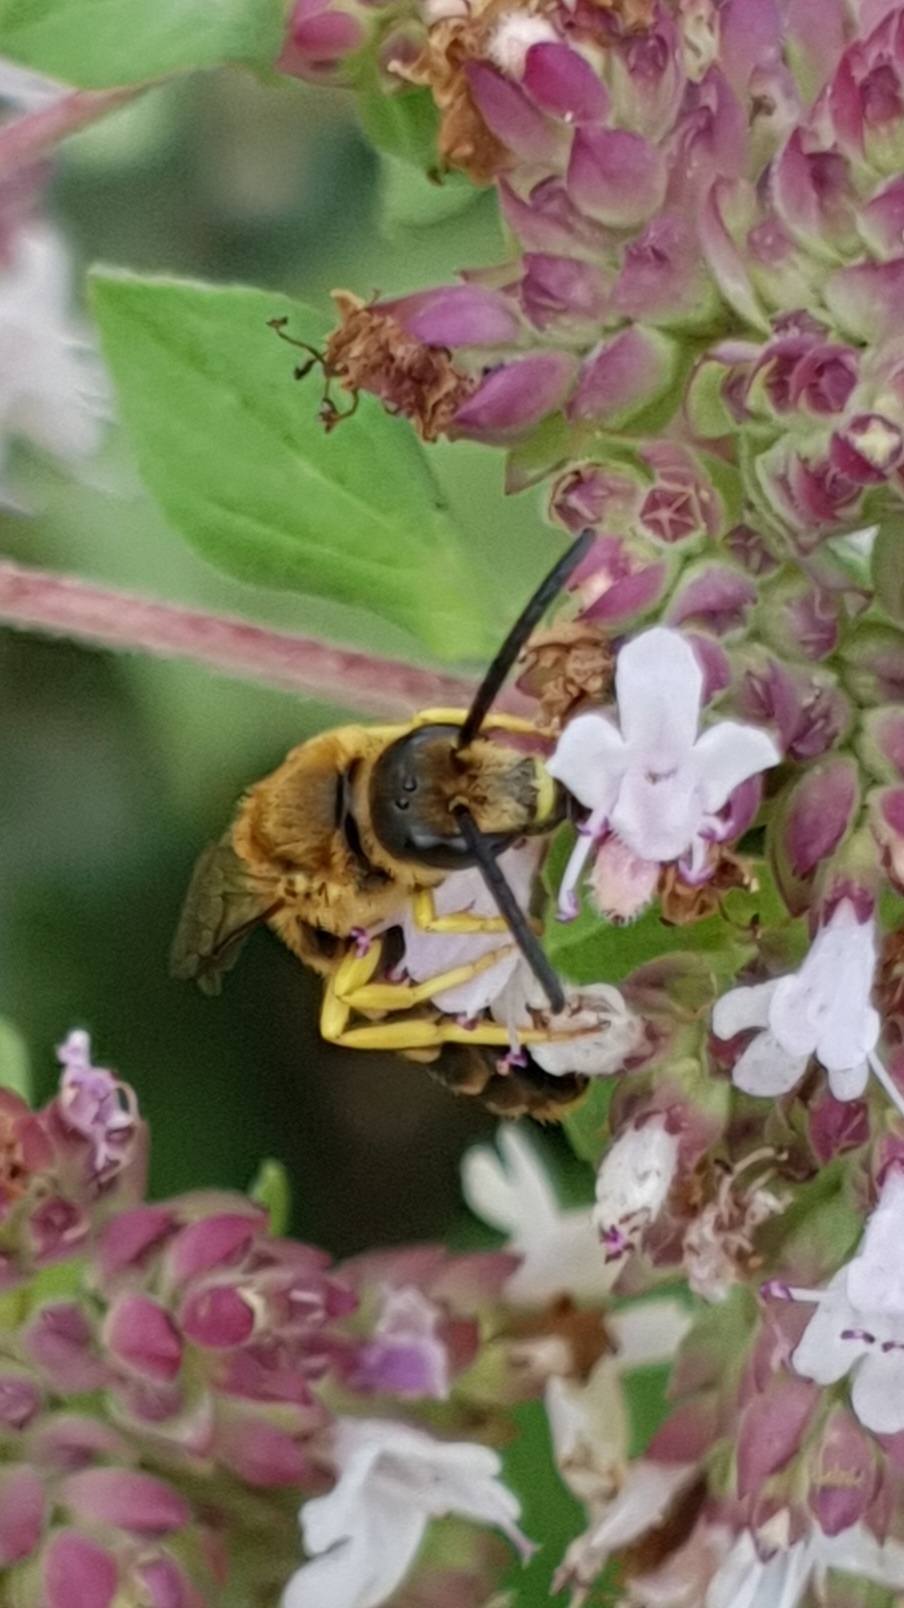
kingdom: Animalia
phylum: Arthropoda
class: Insecta
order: Hymenoptera
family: Halictidae
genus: Halictus
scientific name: Halictus scabiosae
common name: Great banded furrow bee
